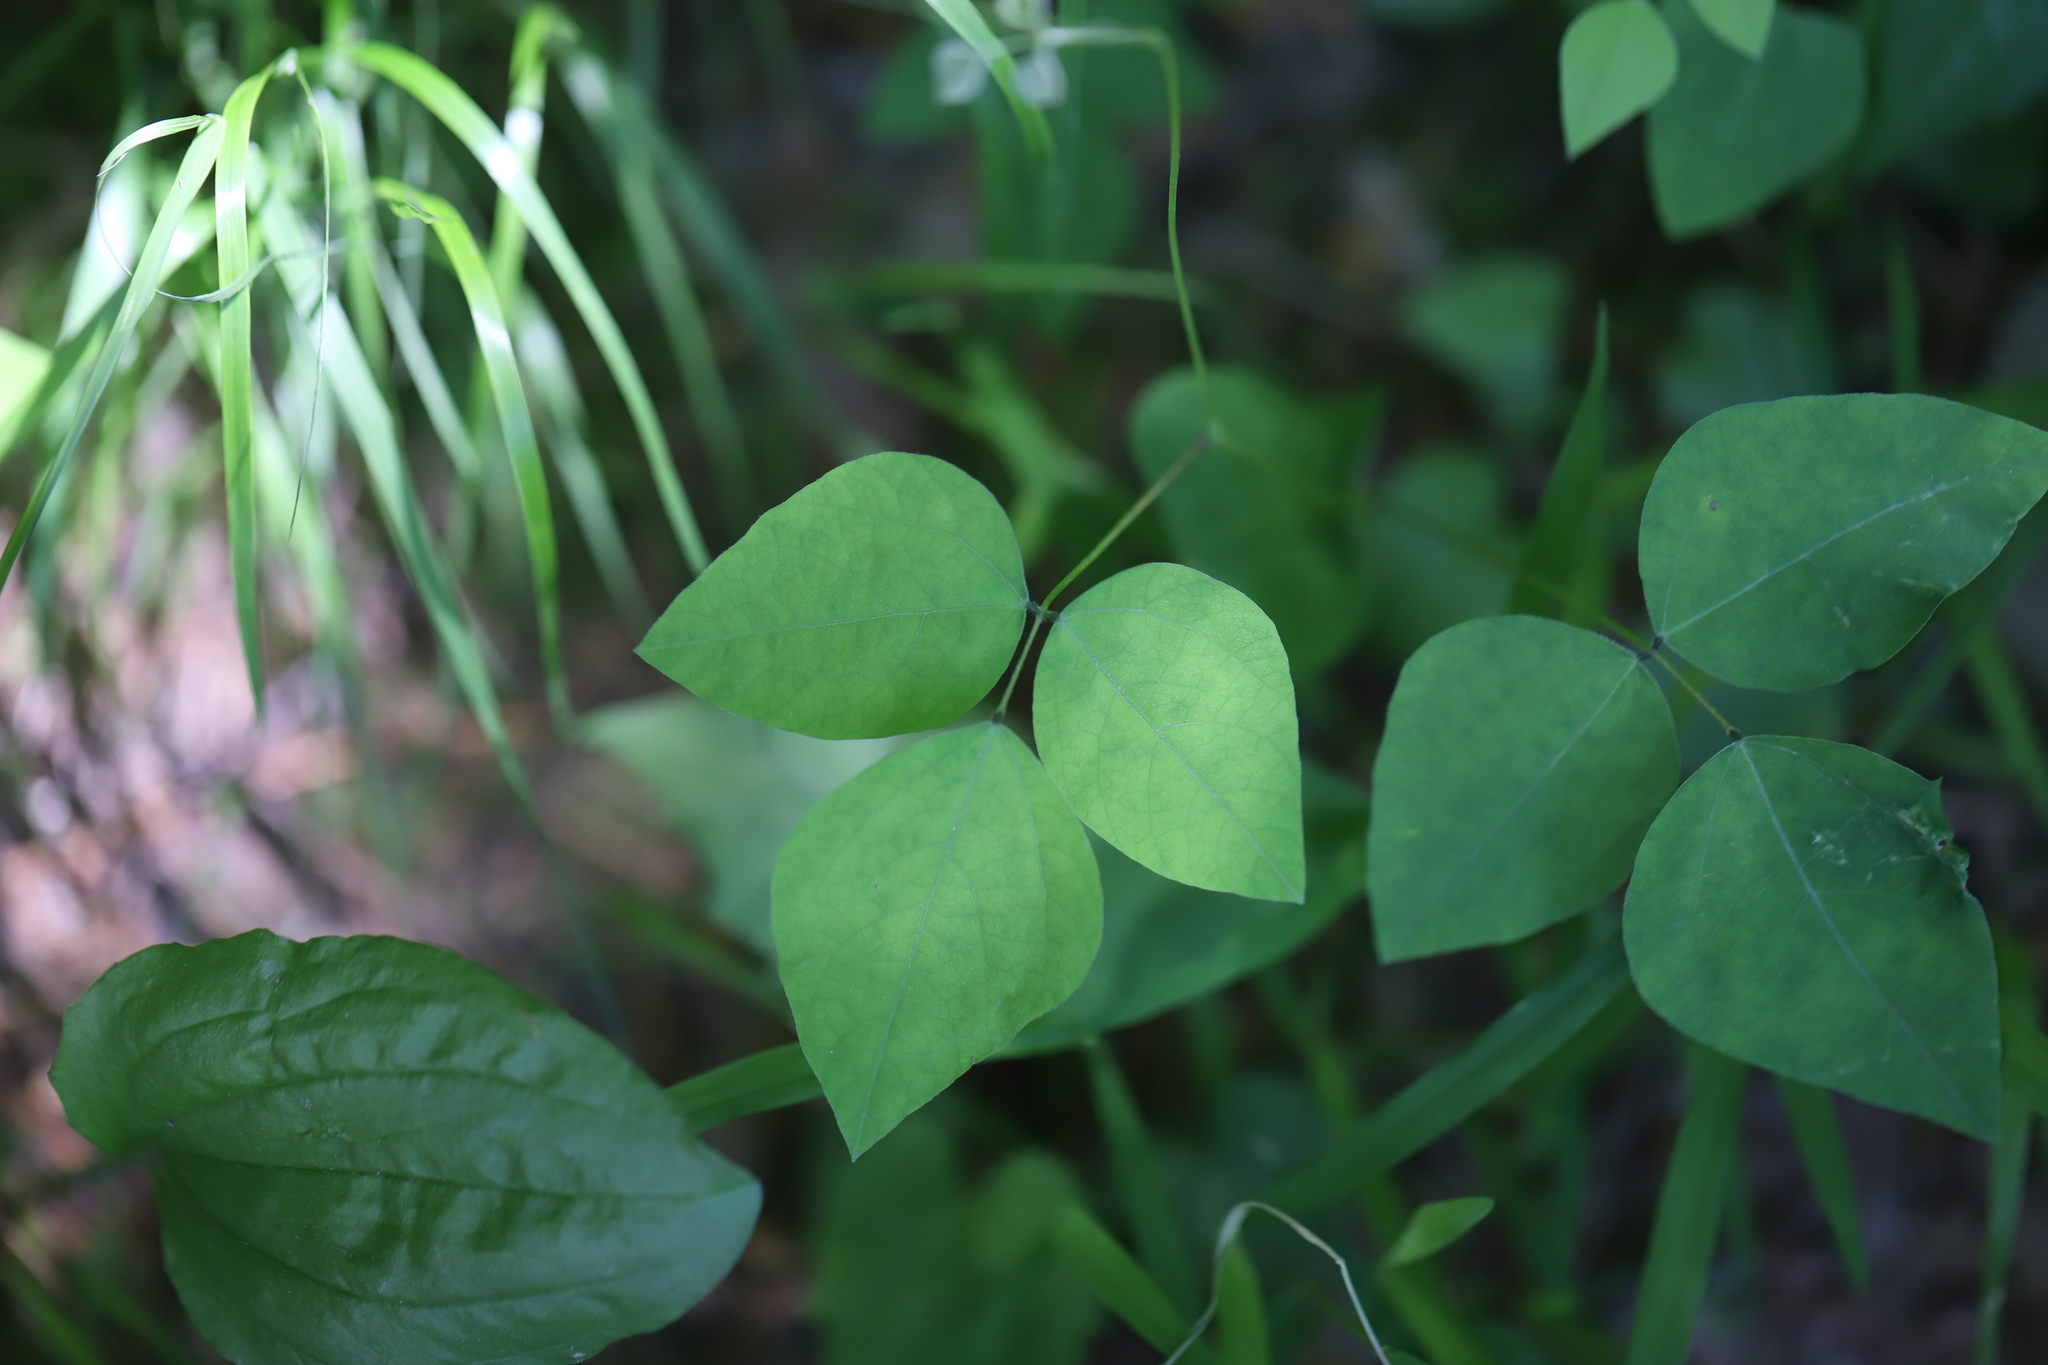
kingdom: Plantae
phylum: Tracheophyta
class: Magnoliopsida
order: Fabales
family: Fabaceae
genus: Amphicarpaea
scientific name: Amphicarpaea bracteata
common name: American hog peanut
